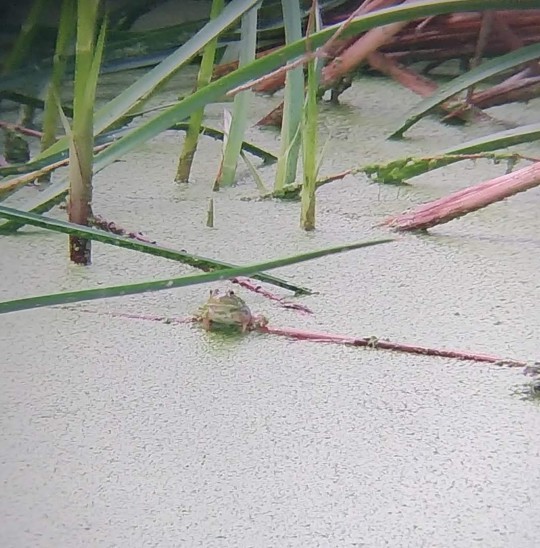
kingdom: Animalia
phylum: Chordata
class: Amphibia
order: Anura
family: Ranidae
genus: Lithobates
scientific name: Lithobates catesbeianus
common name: American bullfrog
